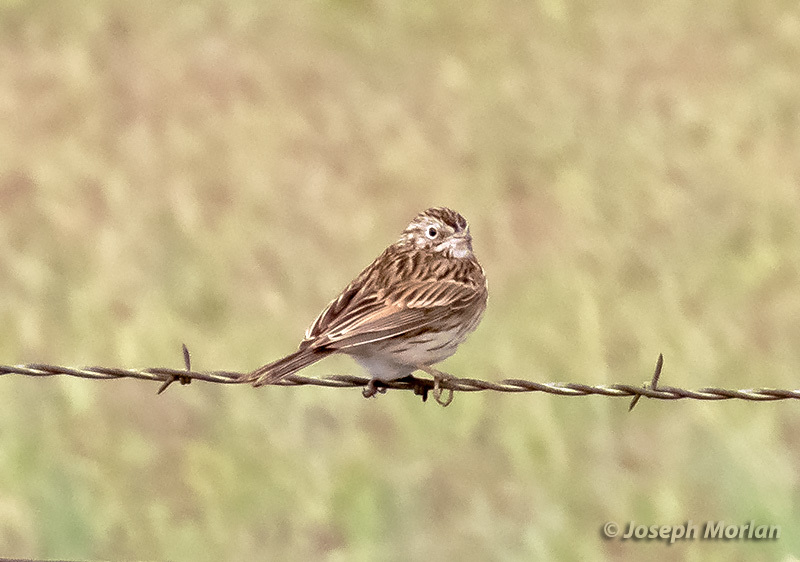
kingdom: Animalia
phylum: Chordata
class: Aves
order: Passeriformes
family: Passerellidae
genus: Passerculus
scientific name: Passerculus sandwichensis
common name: Savannah sparrow
